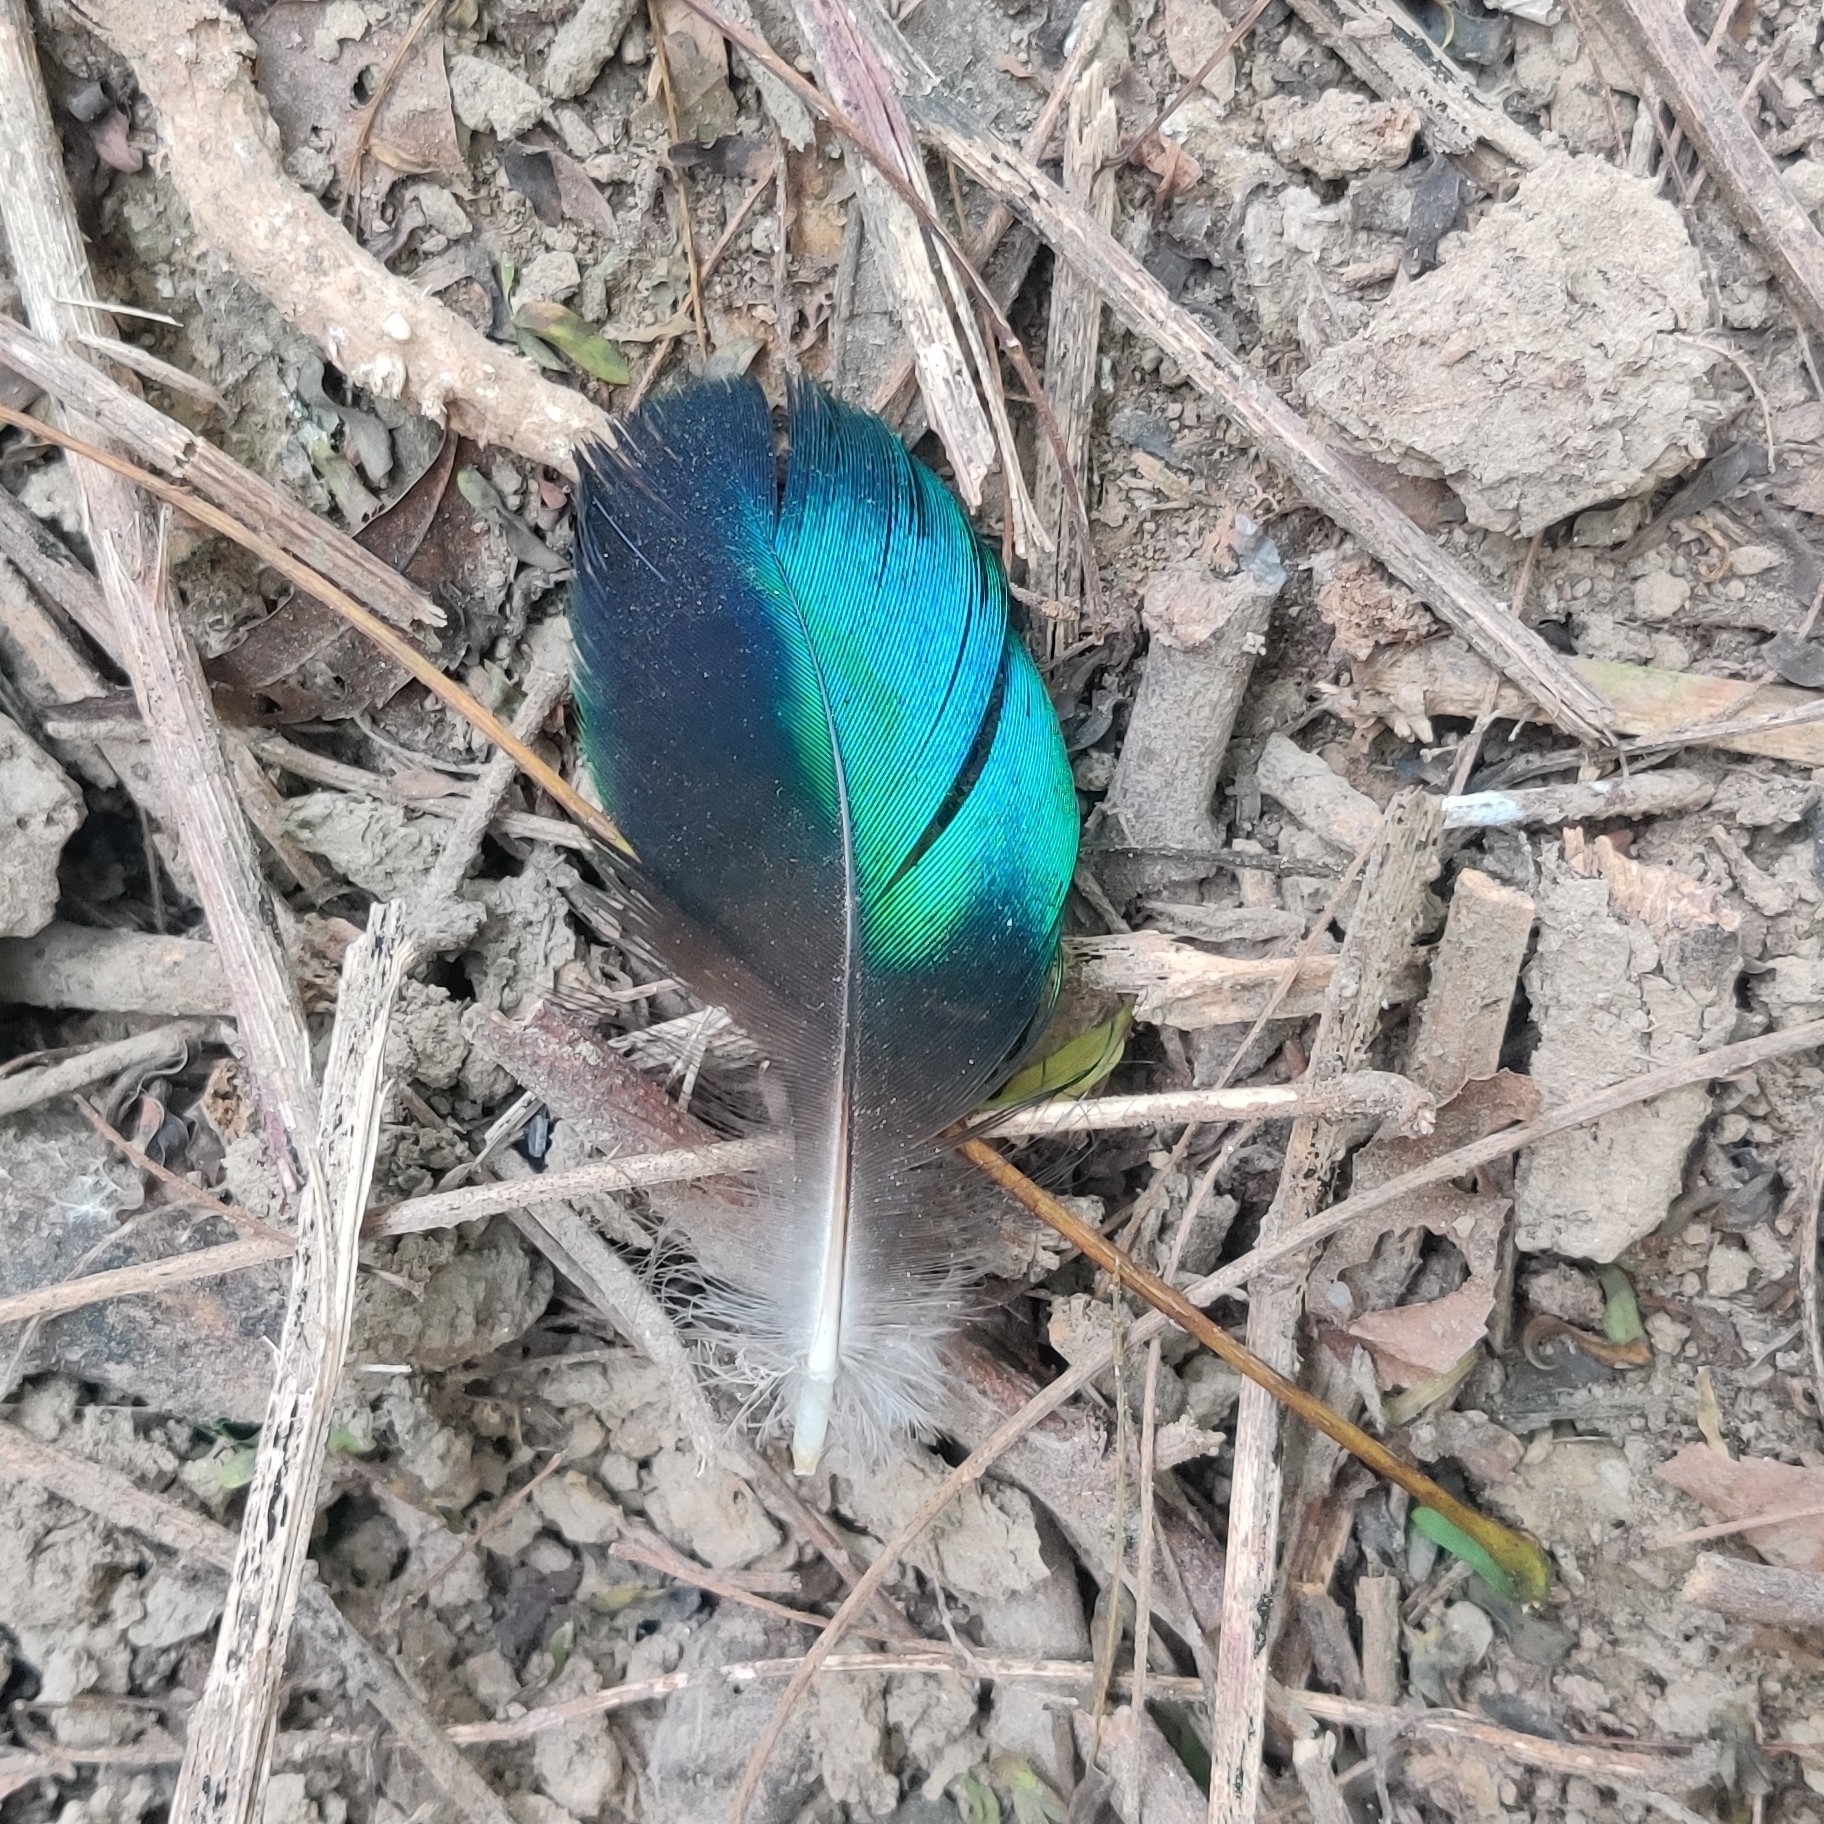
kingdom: Animalia
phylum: Chordata
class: Aves
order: Galliformes
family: Phasianidae
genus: Pavo
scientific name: Pavo cristatus
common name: Indian peafowl
